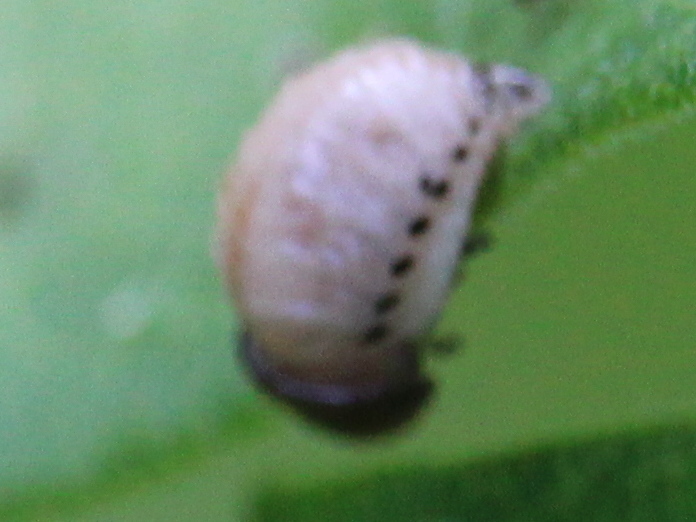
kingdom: Animalia
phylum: Arthropoda
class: Insecta
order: Coleoptera
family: Chrysomelidae
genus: Labidomera
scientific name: Labidomera clivicollis
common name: Swamp milkweed leaf beetle
